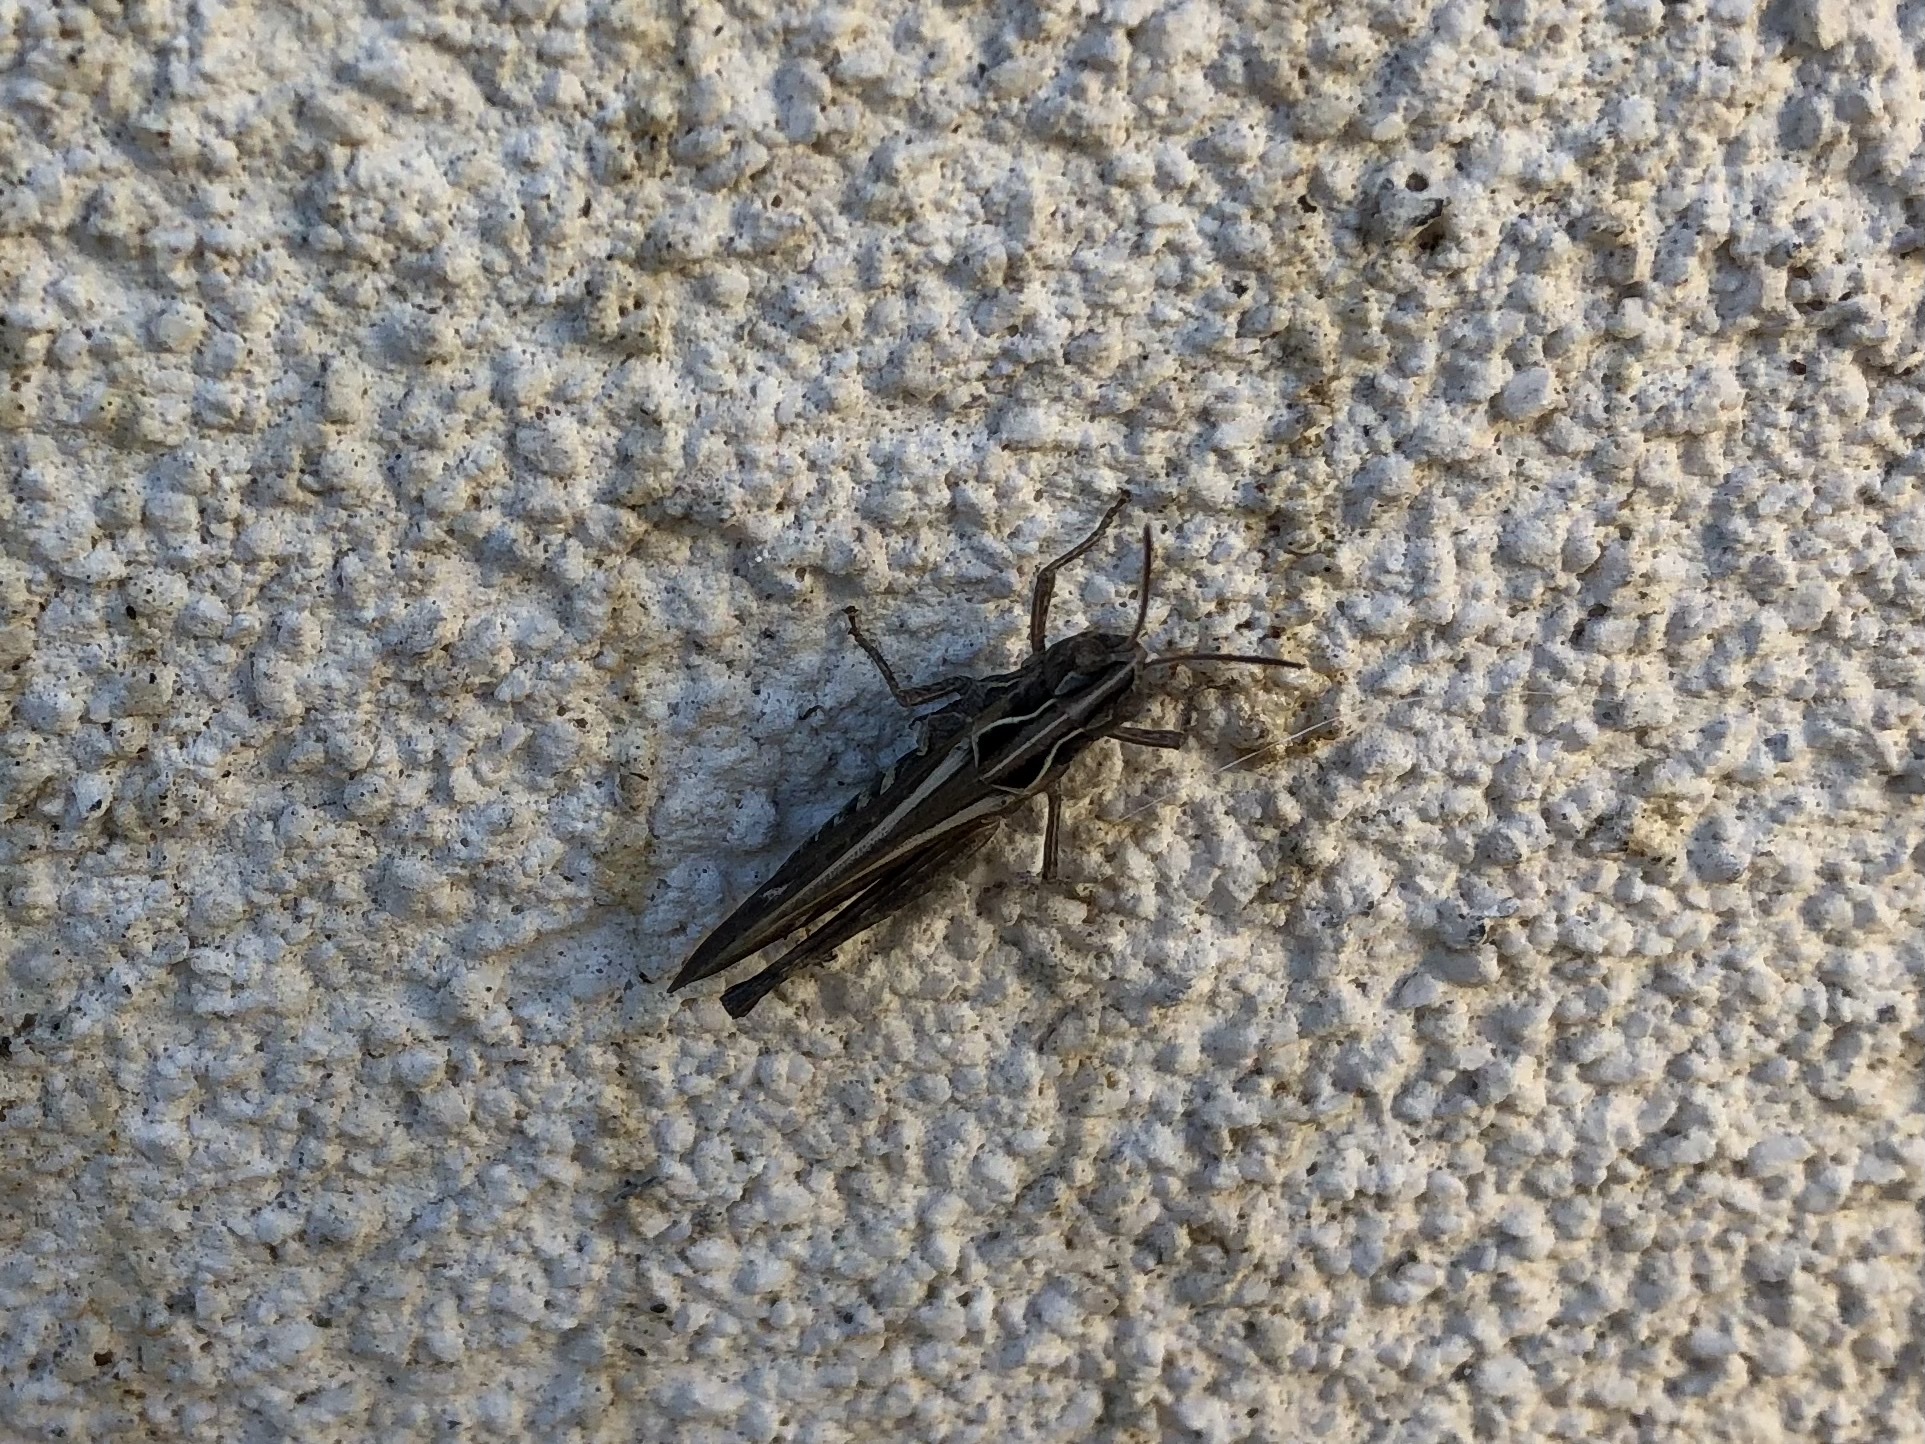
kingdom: Animalia
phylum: Arthropoda
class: Insecta
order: Orthoptera
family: Acrididae
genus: Omocestus
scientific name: Omocestus rufipes
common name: Woodland grasshopper
